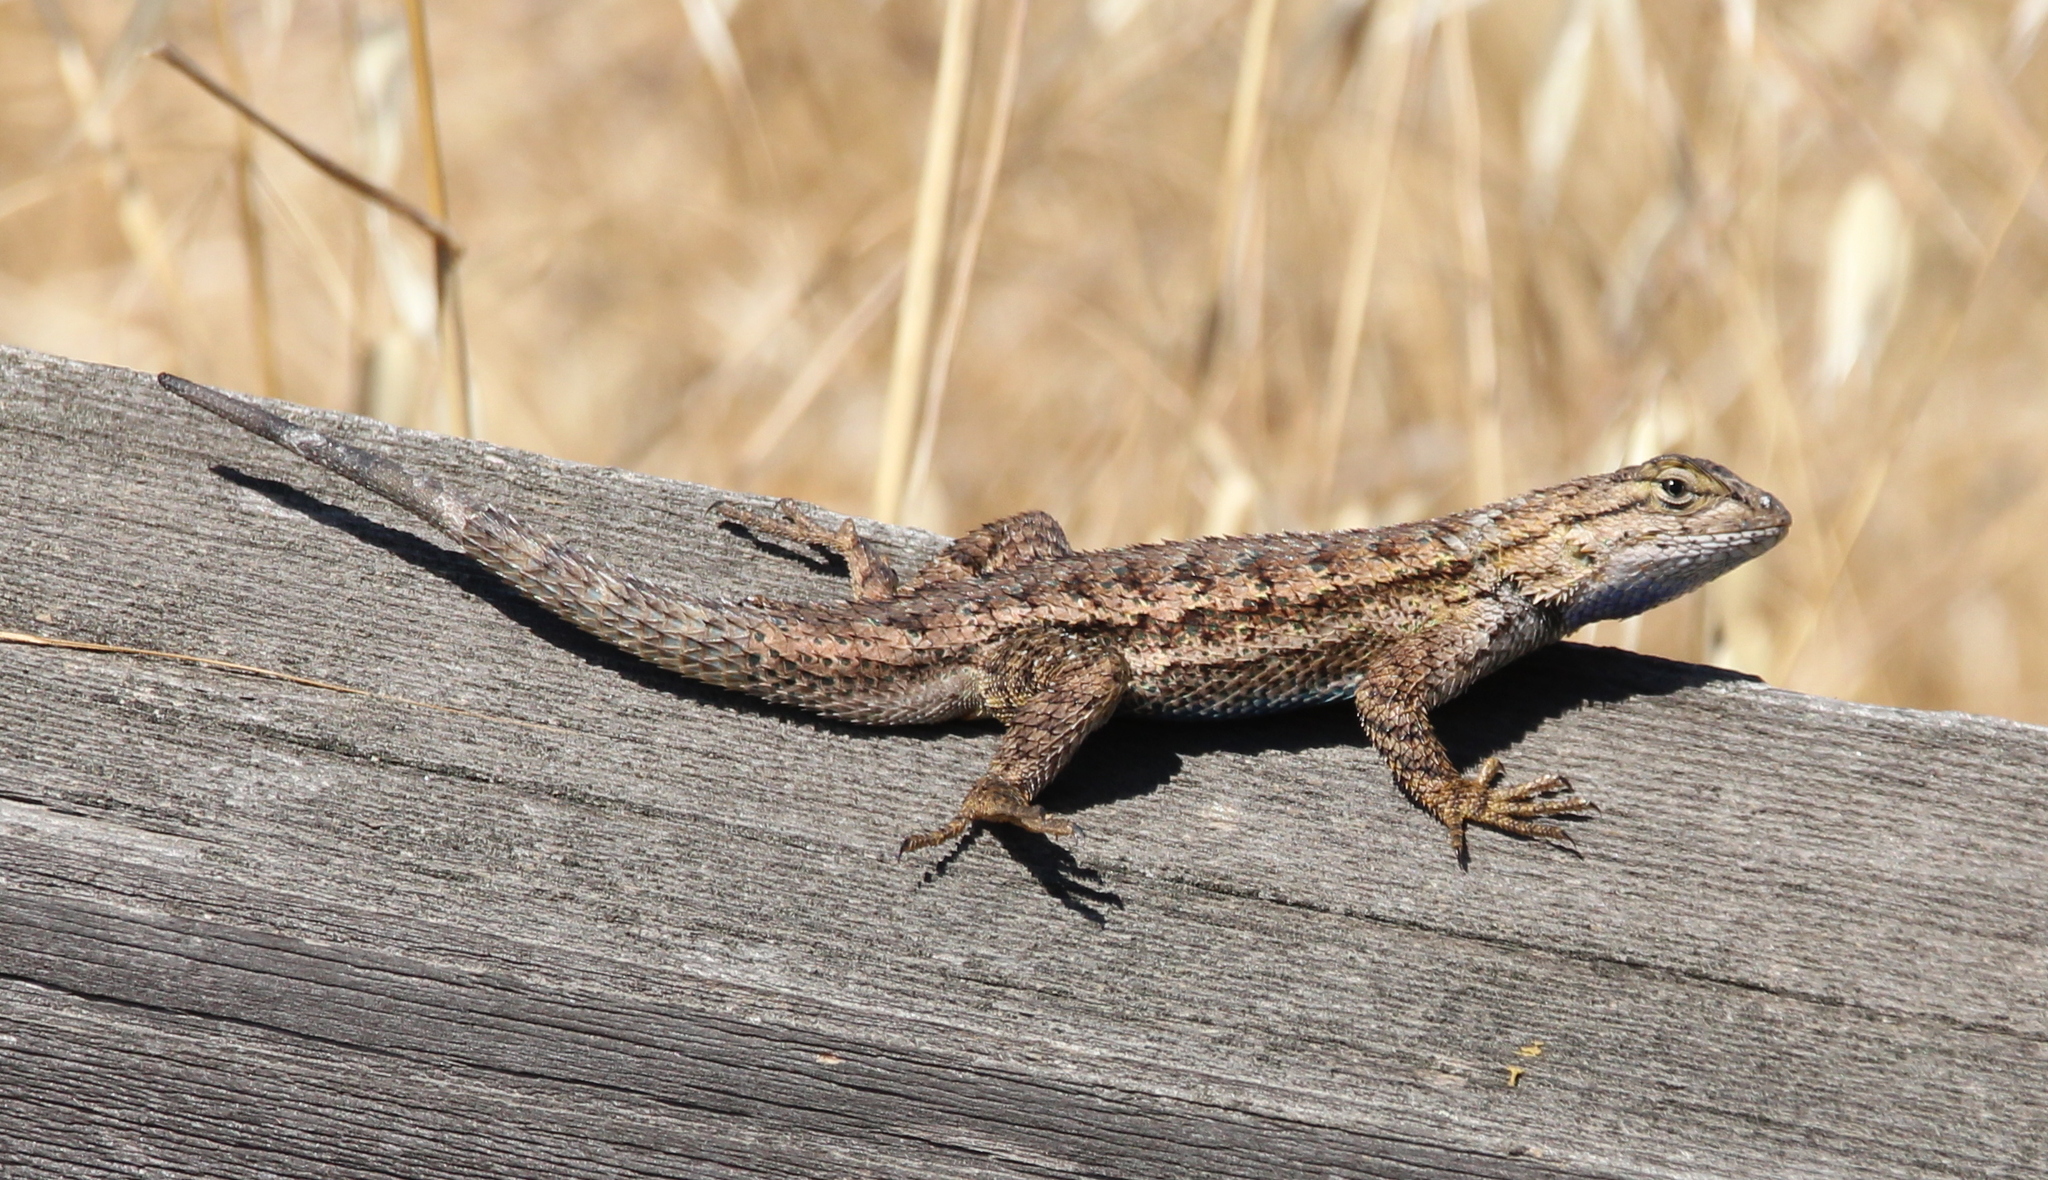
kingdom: Animalia
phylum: Chordata
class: Squamata
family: Phrynosomatidae
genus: Sceloporus
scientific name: Sceloporus occidentalis
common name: Western fence lizard
